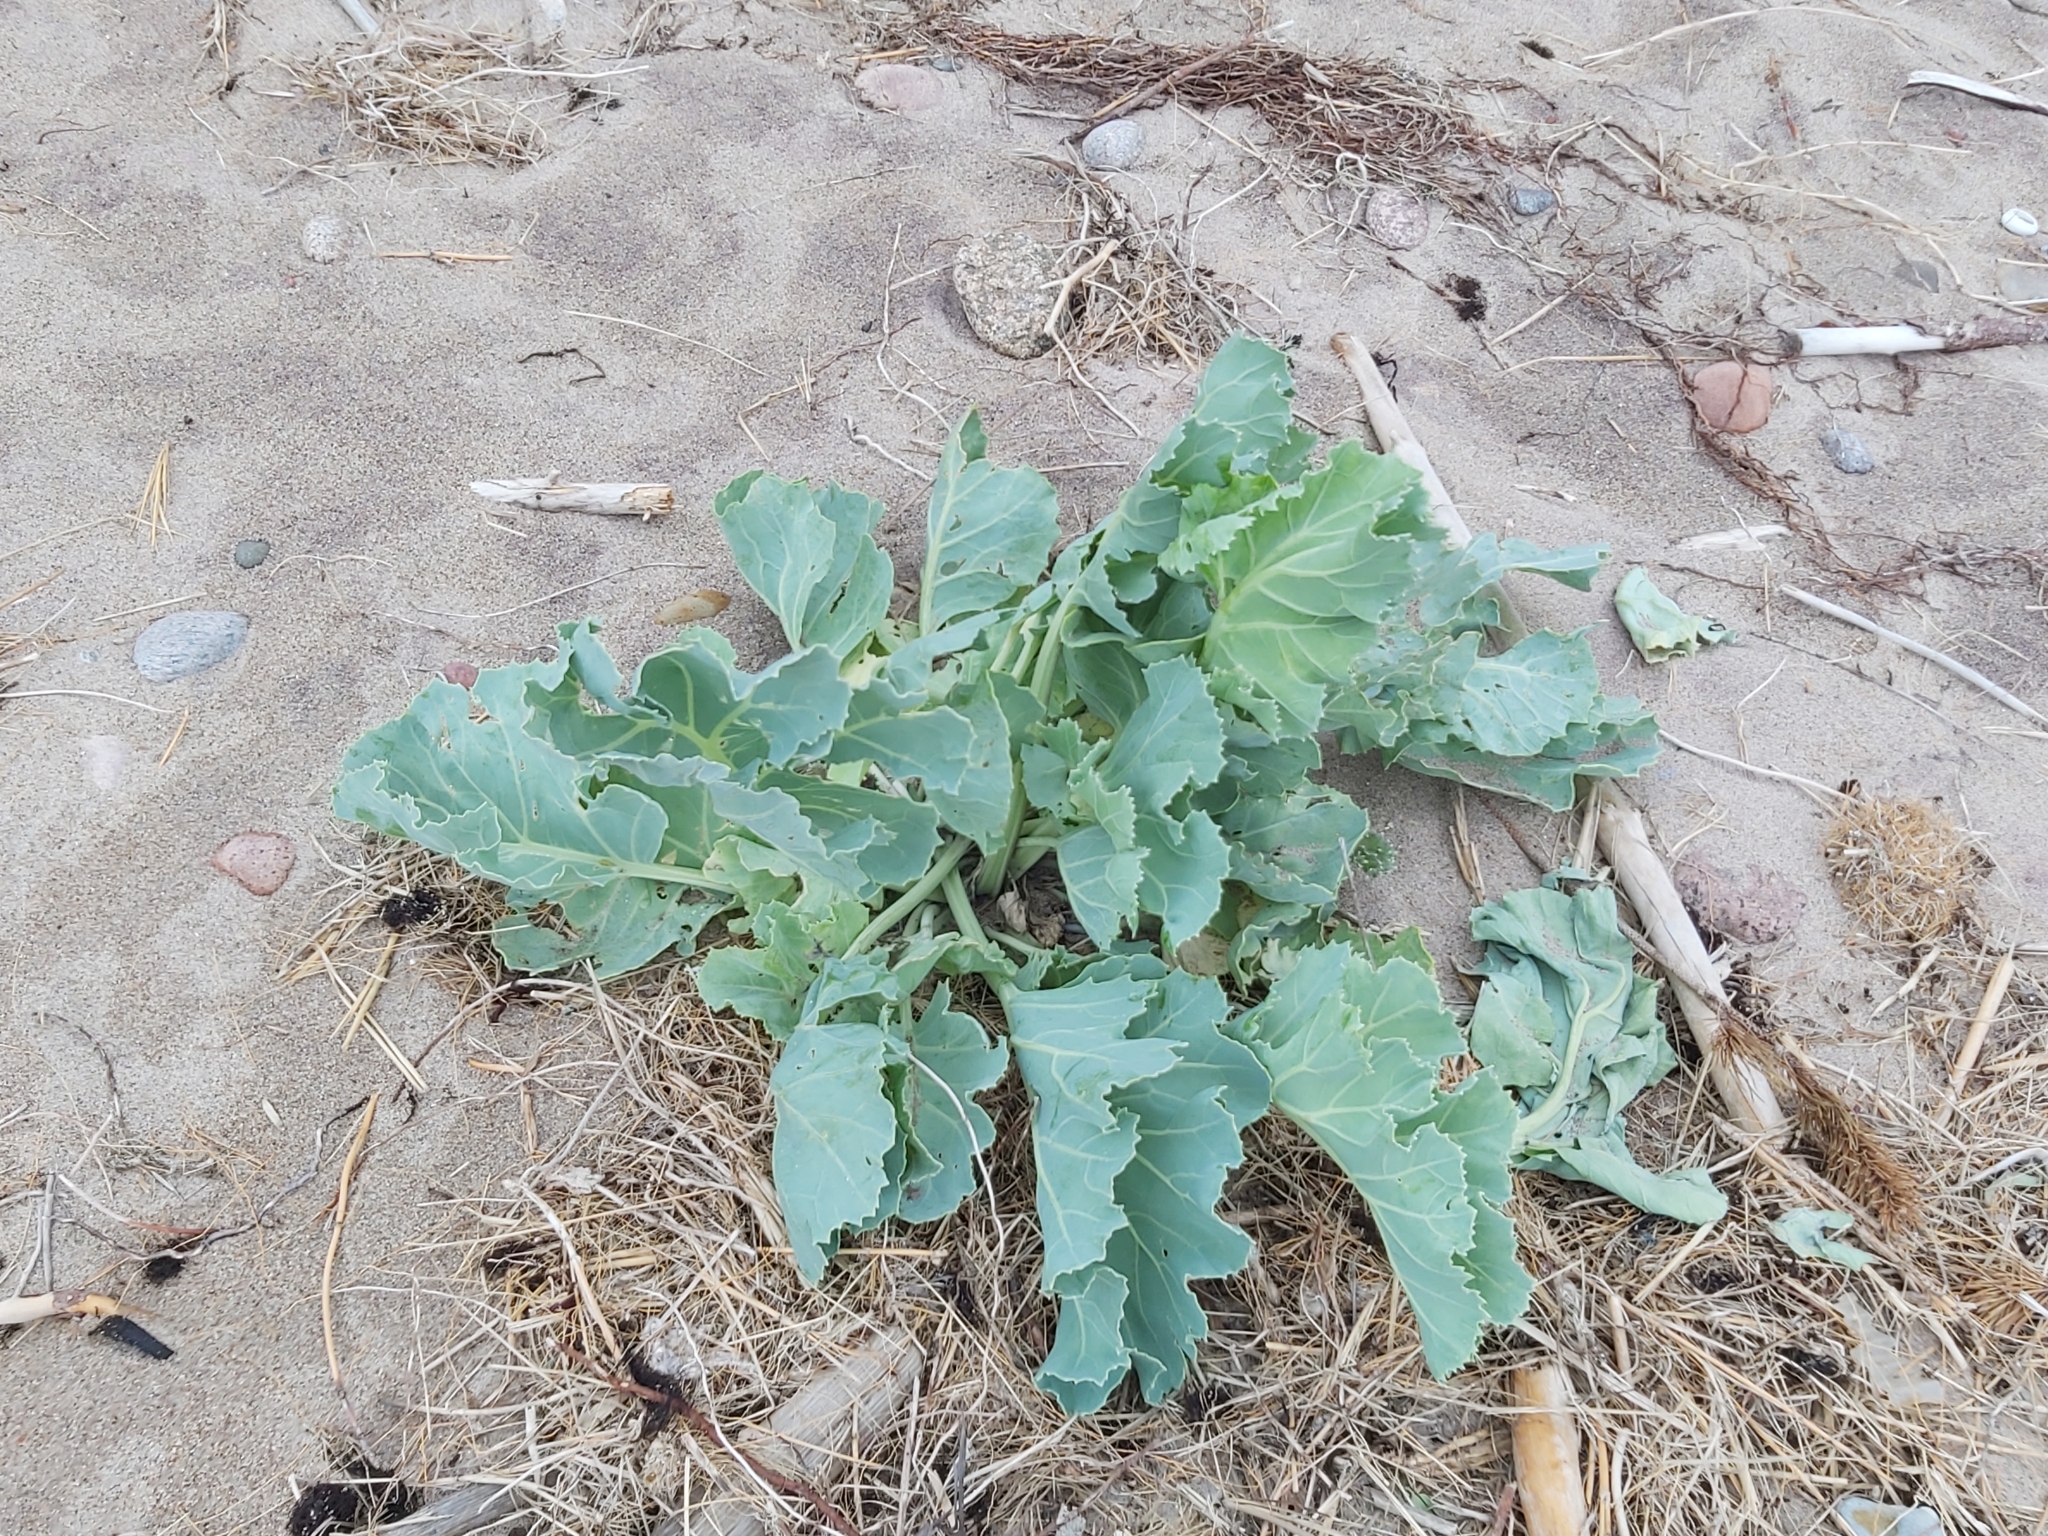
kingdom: Plantae
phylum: Tracheophyta
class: Magnoliopsida
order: Brassicales
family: Brassicaceae
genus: Crambe
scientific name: Crambe maritima
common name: Sea-kale
